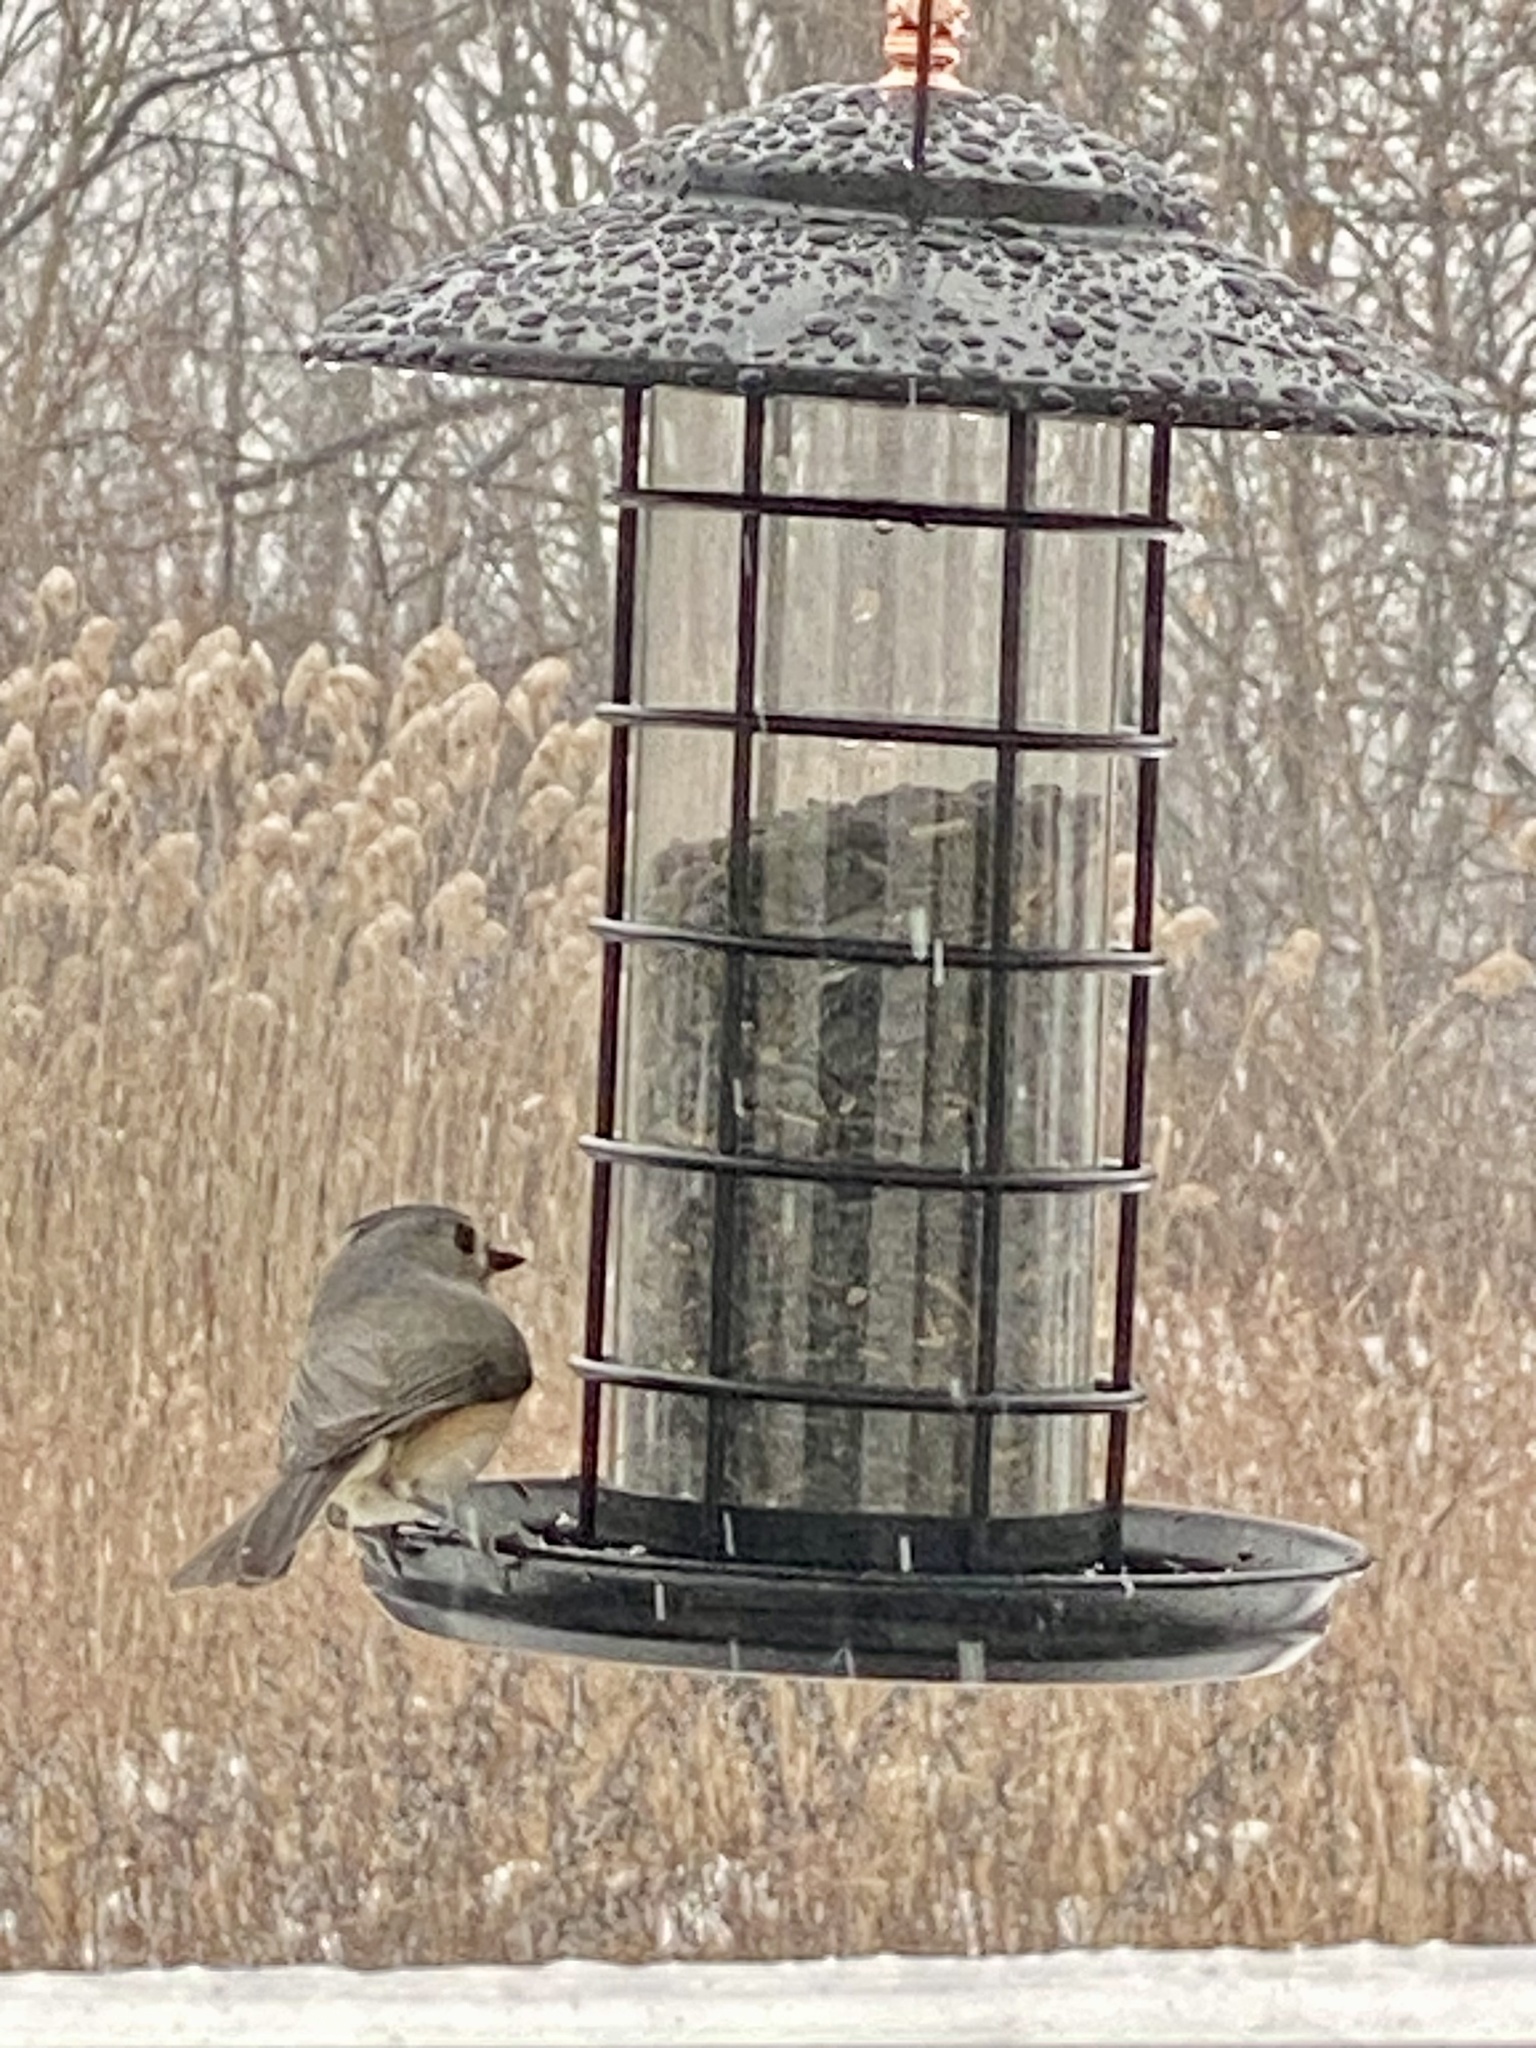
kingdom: Animalia
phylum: Chordata
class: Aves
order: Passeriformes
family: Paridae
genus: Baeolophus
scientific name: Baeolophus bicolor
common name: Tufted titmouse
